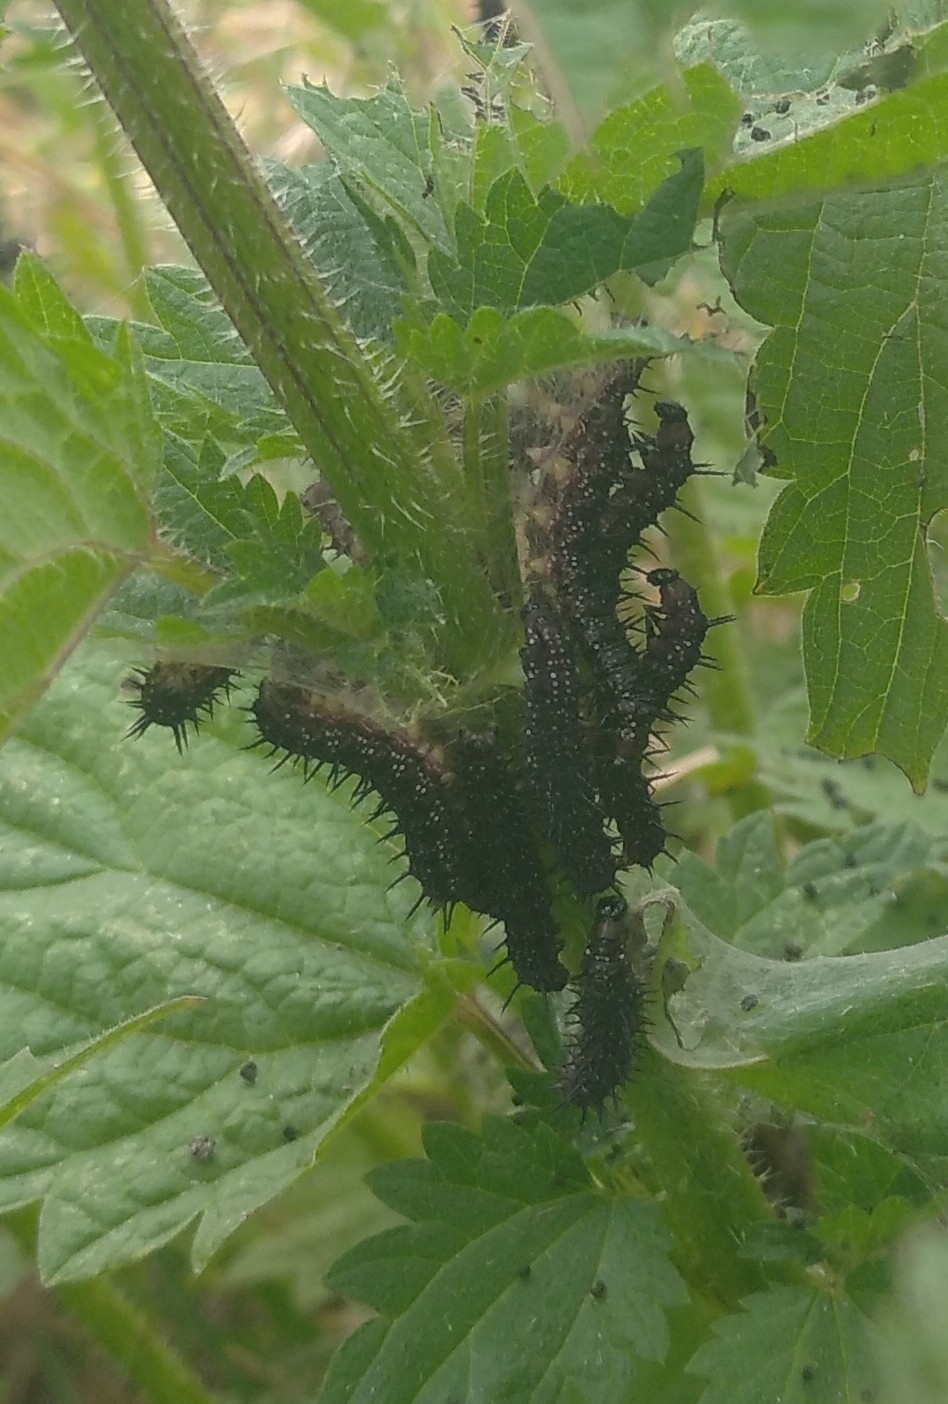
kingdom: Animalia
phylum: Arthropoda
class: Insecta
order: Lepidoptera
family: Nymphalidae
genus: Aglais
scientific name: Aglais io
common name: Peacock
